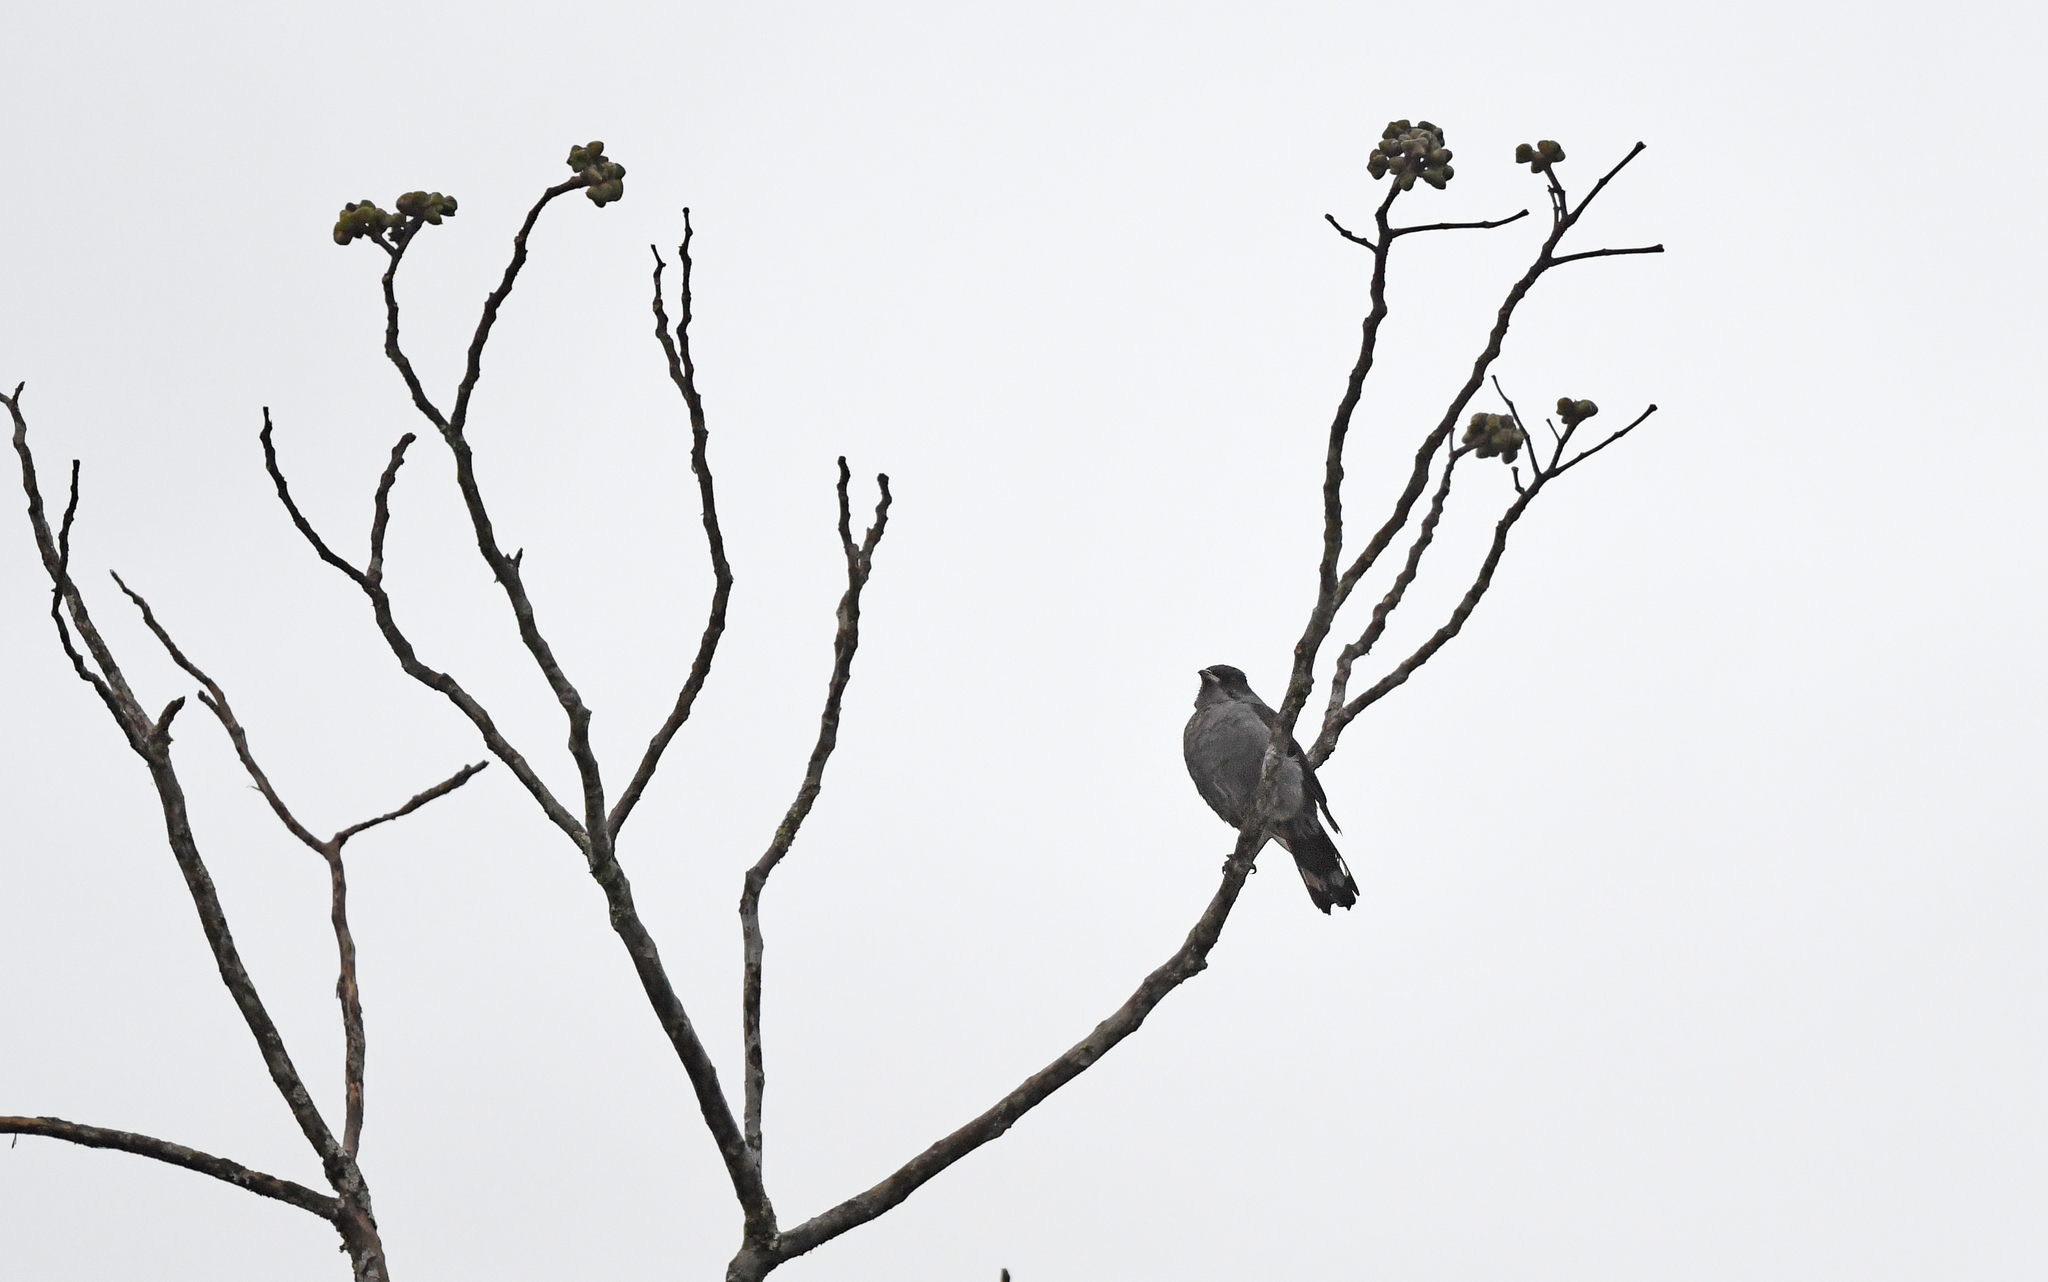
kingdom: Animalia
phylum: Chordata
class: Aves
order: Passeriformes
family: Cotingidae
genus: Ampelion
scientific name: Ampelion rubrocristatus
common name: Red-crested cotinga
